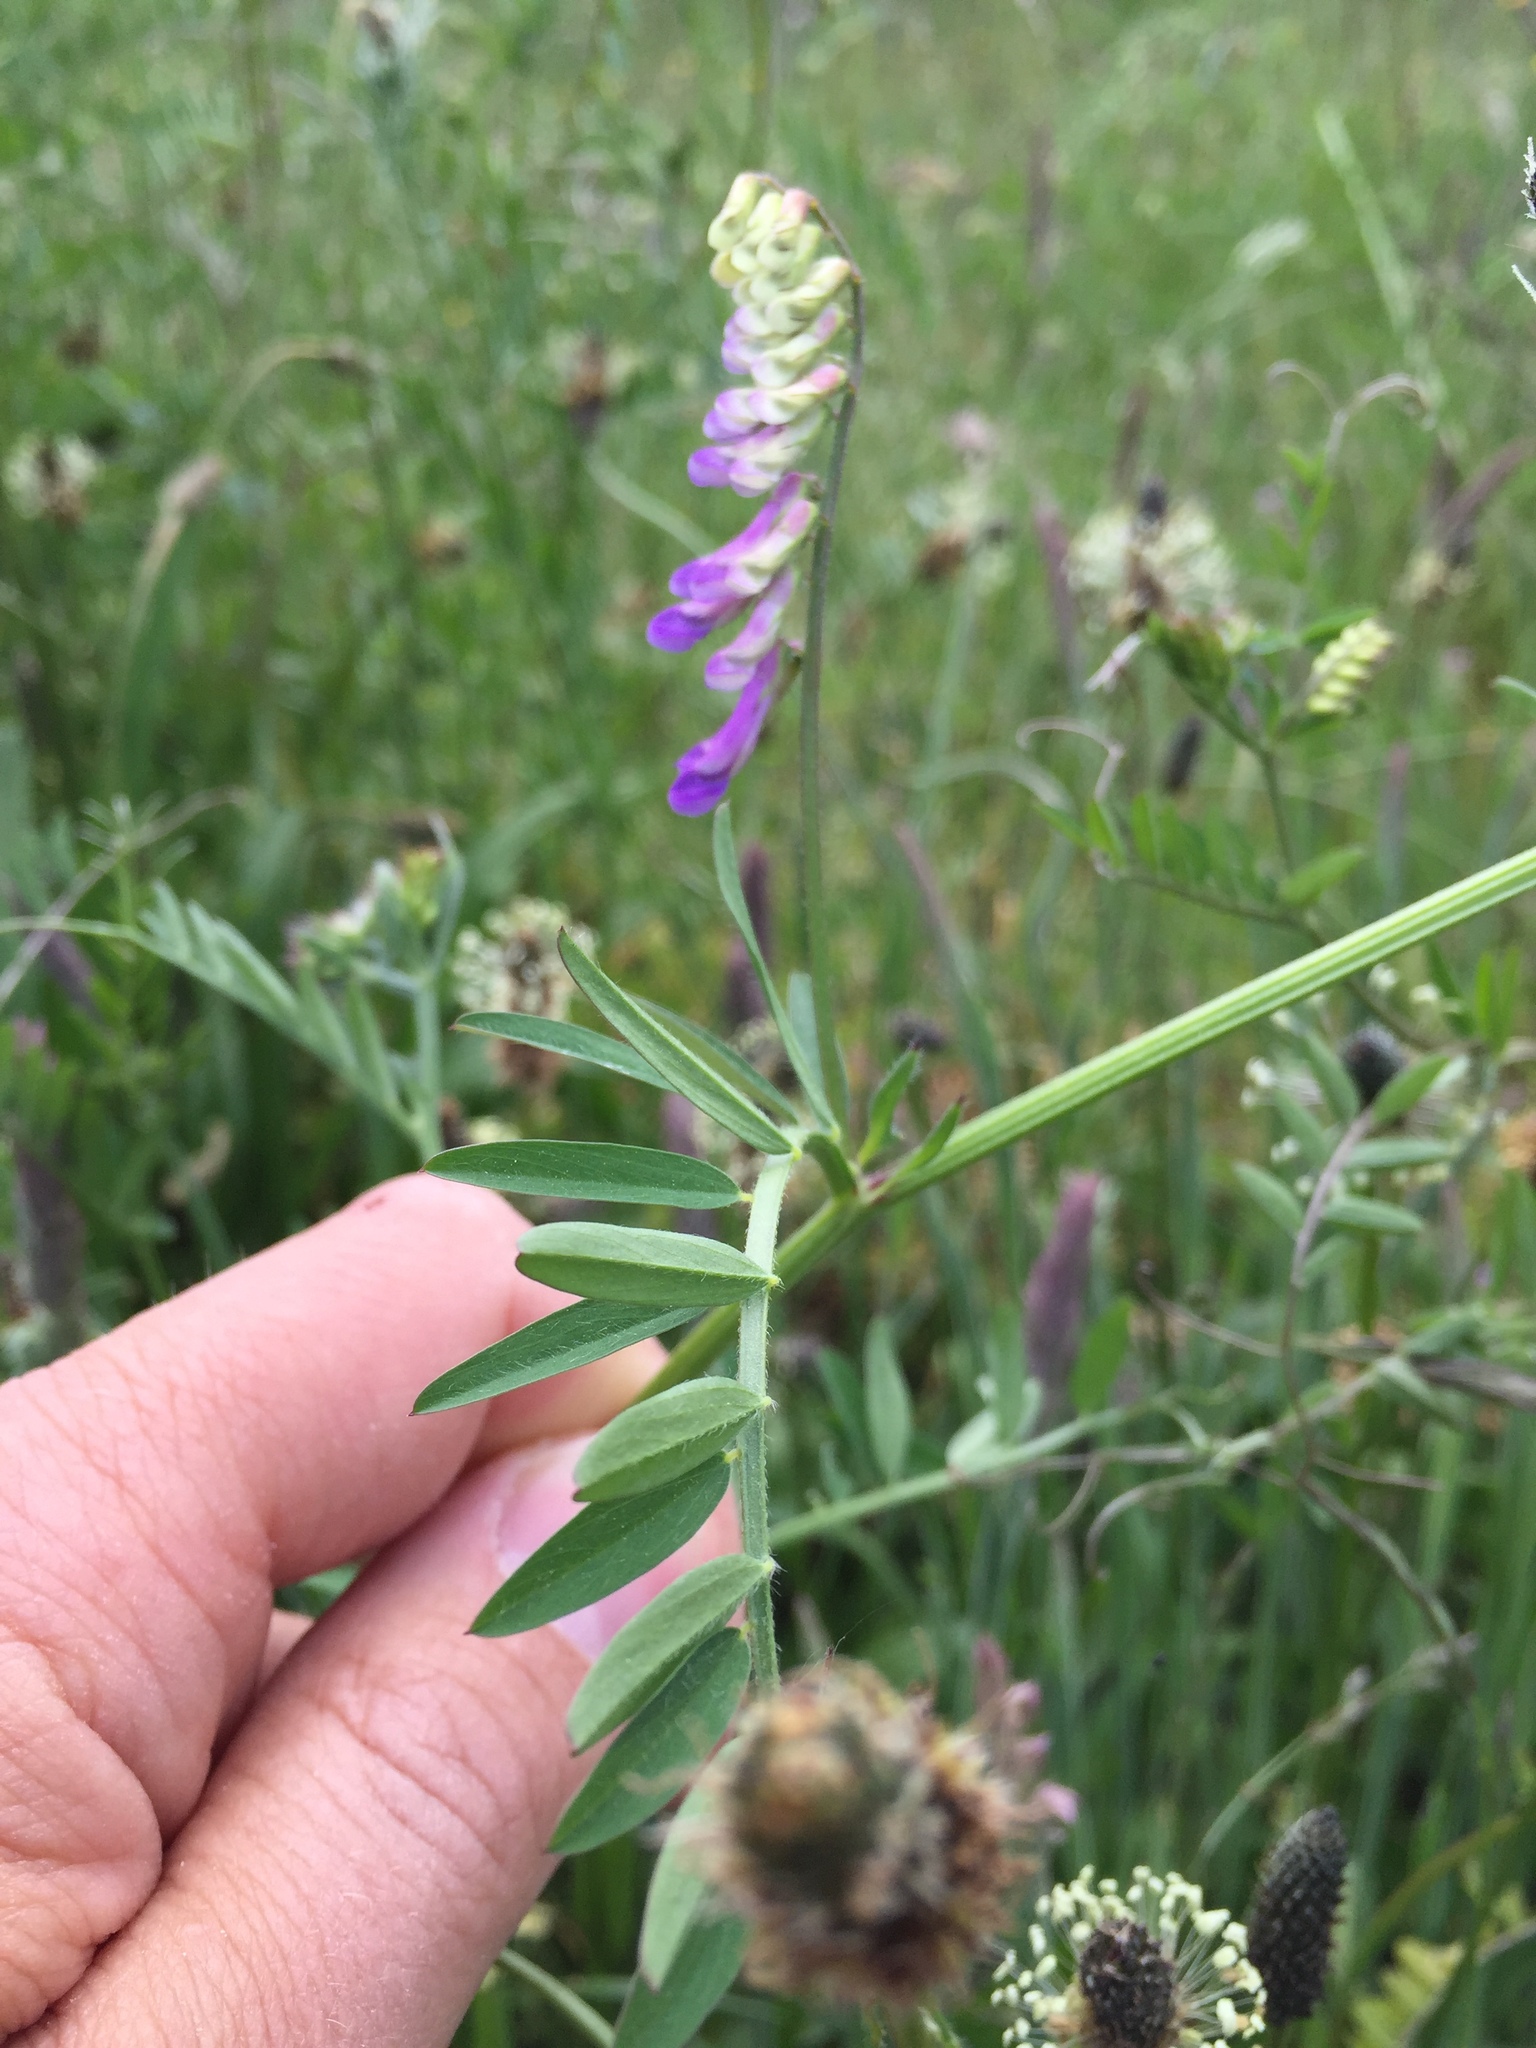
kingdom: Plantae
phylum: Tracheophyta
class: Magnoliopsida
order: Fabales
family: Fabaceae
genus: Vicia
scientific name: Vicia cracca
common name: Bird vetch
